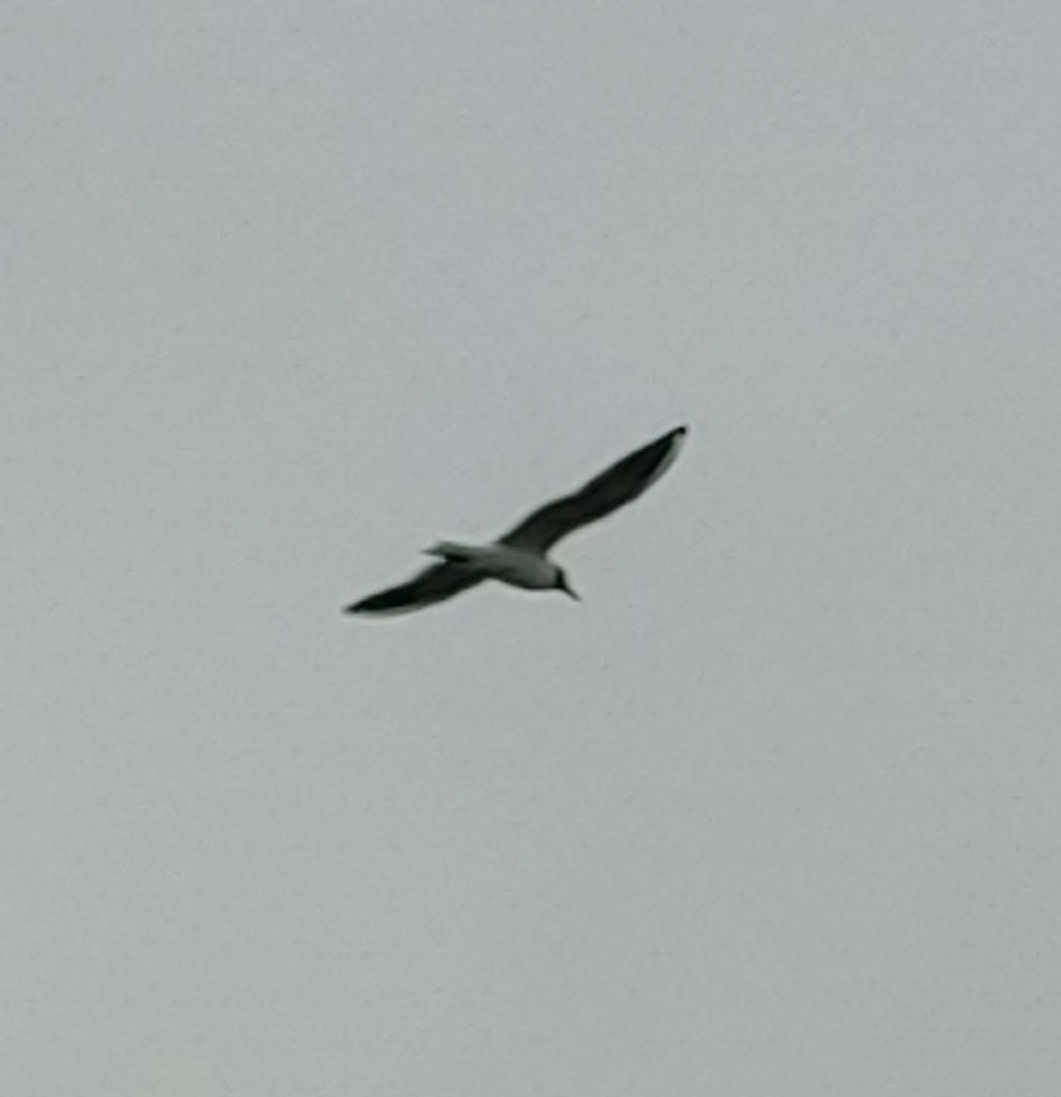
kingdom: Animalia
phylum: Chordata
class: Aves
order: Charadriiformes
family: Laridae
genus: Chroicocephalus
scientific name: Chroicocephalus ridibundus
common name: Black-headed gull
